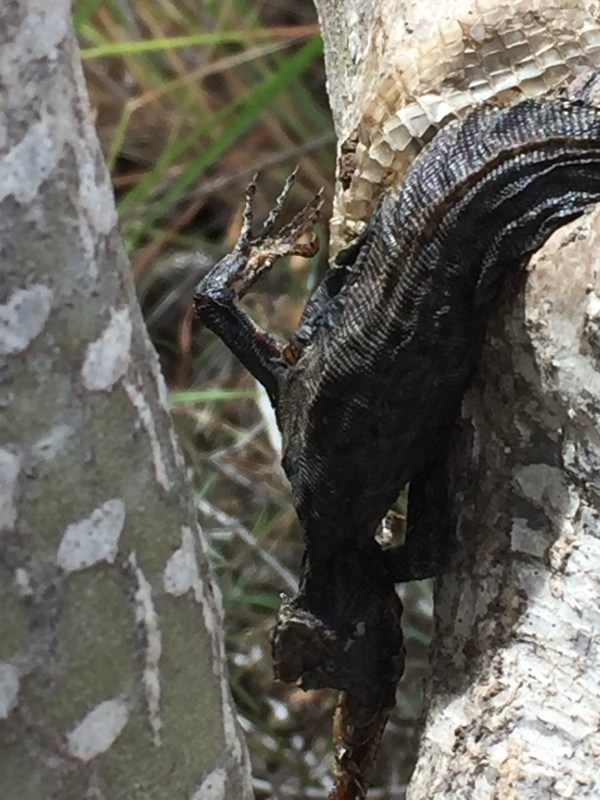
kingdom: Animalia
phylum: Chordata
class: Squamata
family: Lacertidae
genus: Gallotia
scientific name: Gallotia stehlini
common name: Gran canaria giant lizard
